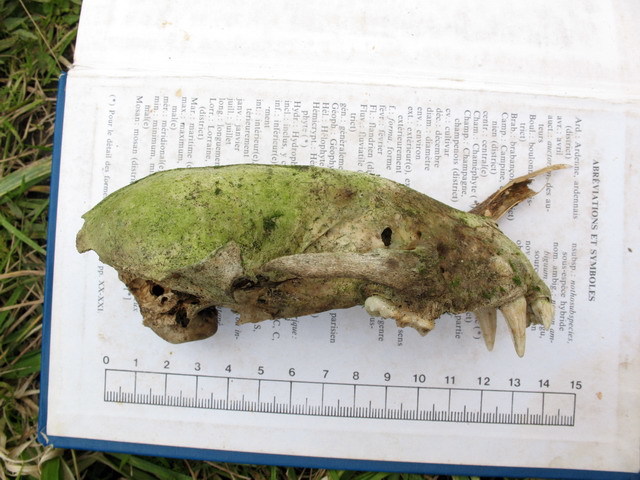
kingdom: Animalia
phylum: Chordata
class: Mammalia
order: Carnivora
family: Mustelidae
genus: Meles
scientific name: Meles meles
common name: Eurasian badger
